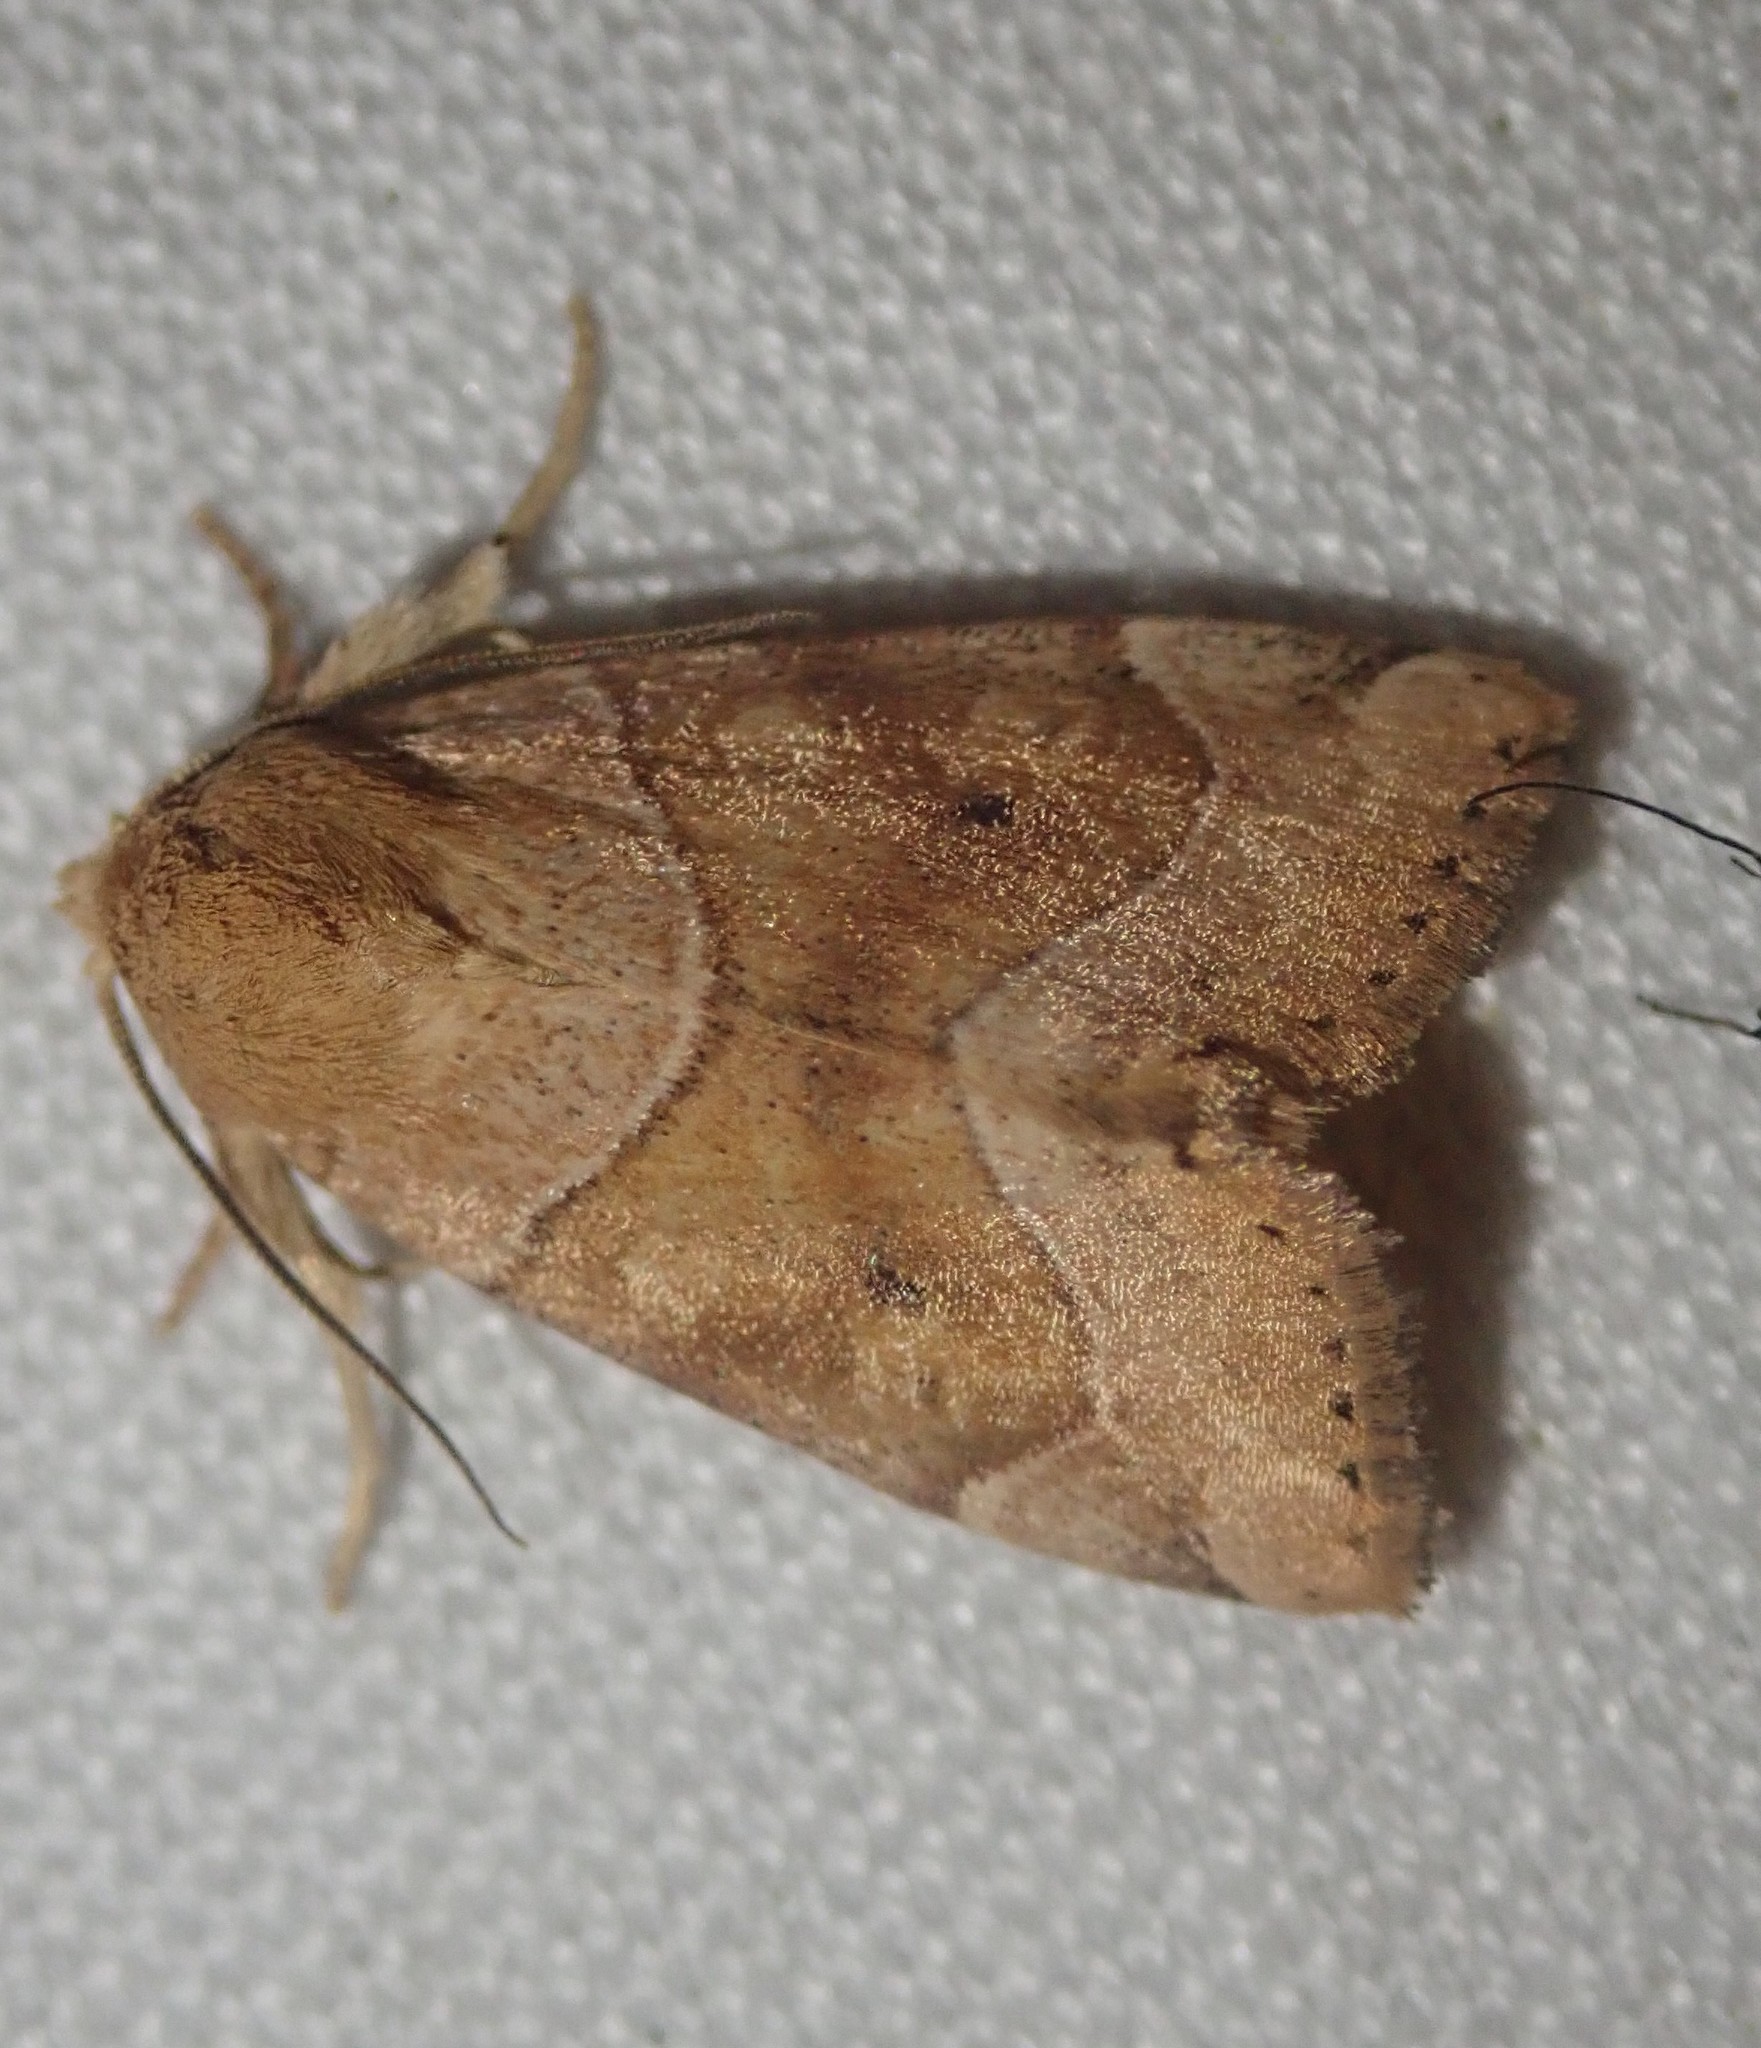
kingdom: Animalia
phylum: Arthropoda
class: Insecta
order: Lepidoptera
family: Noctuidae
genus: Cosmia
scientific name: Cosmia trapezina
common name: Dun-bar
